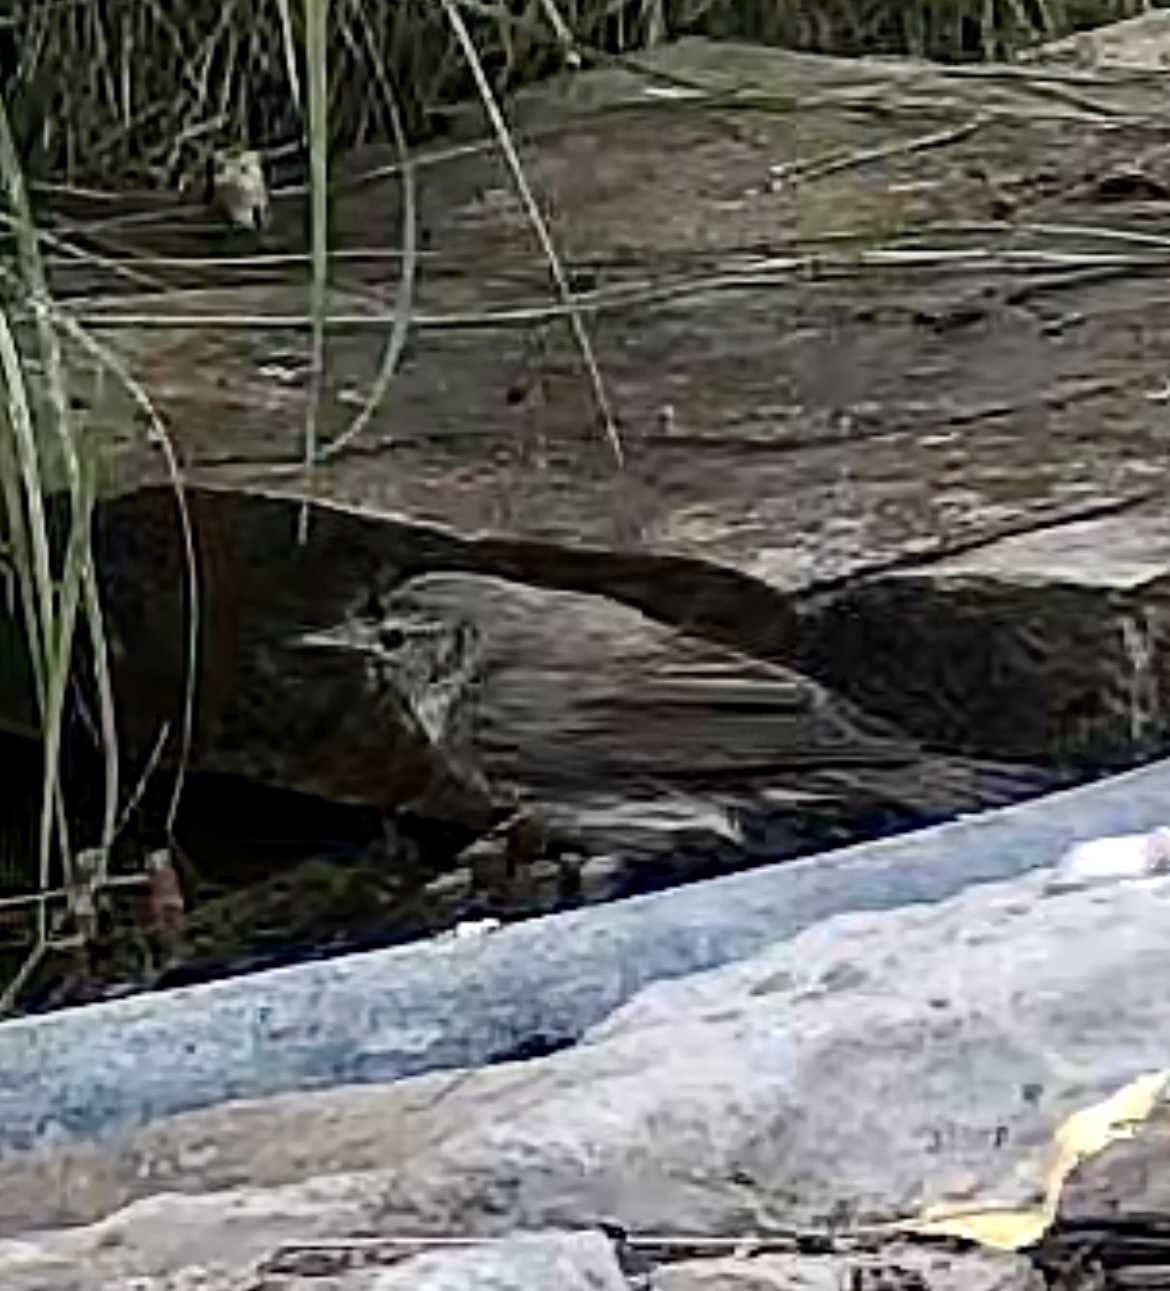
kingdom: Animalia
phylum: Chordata
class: Aves
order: Passeriformes
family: Phylloscopidae
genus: Phylloscopus
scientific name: Phylloscopus bonelli
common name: Western bonelli's warbler
